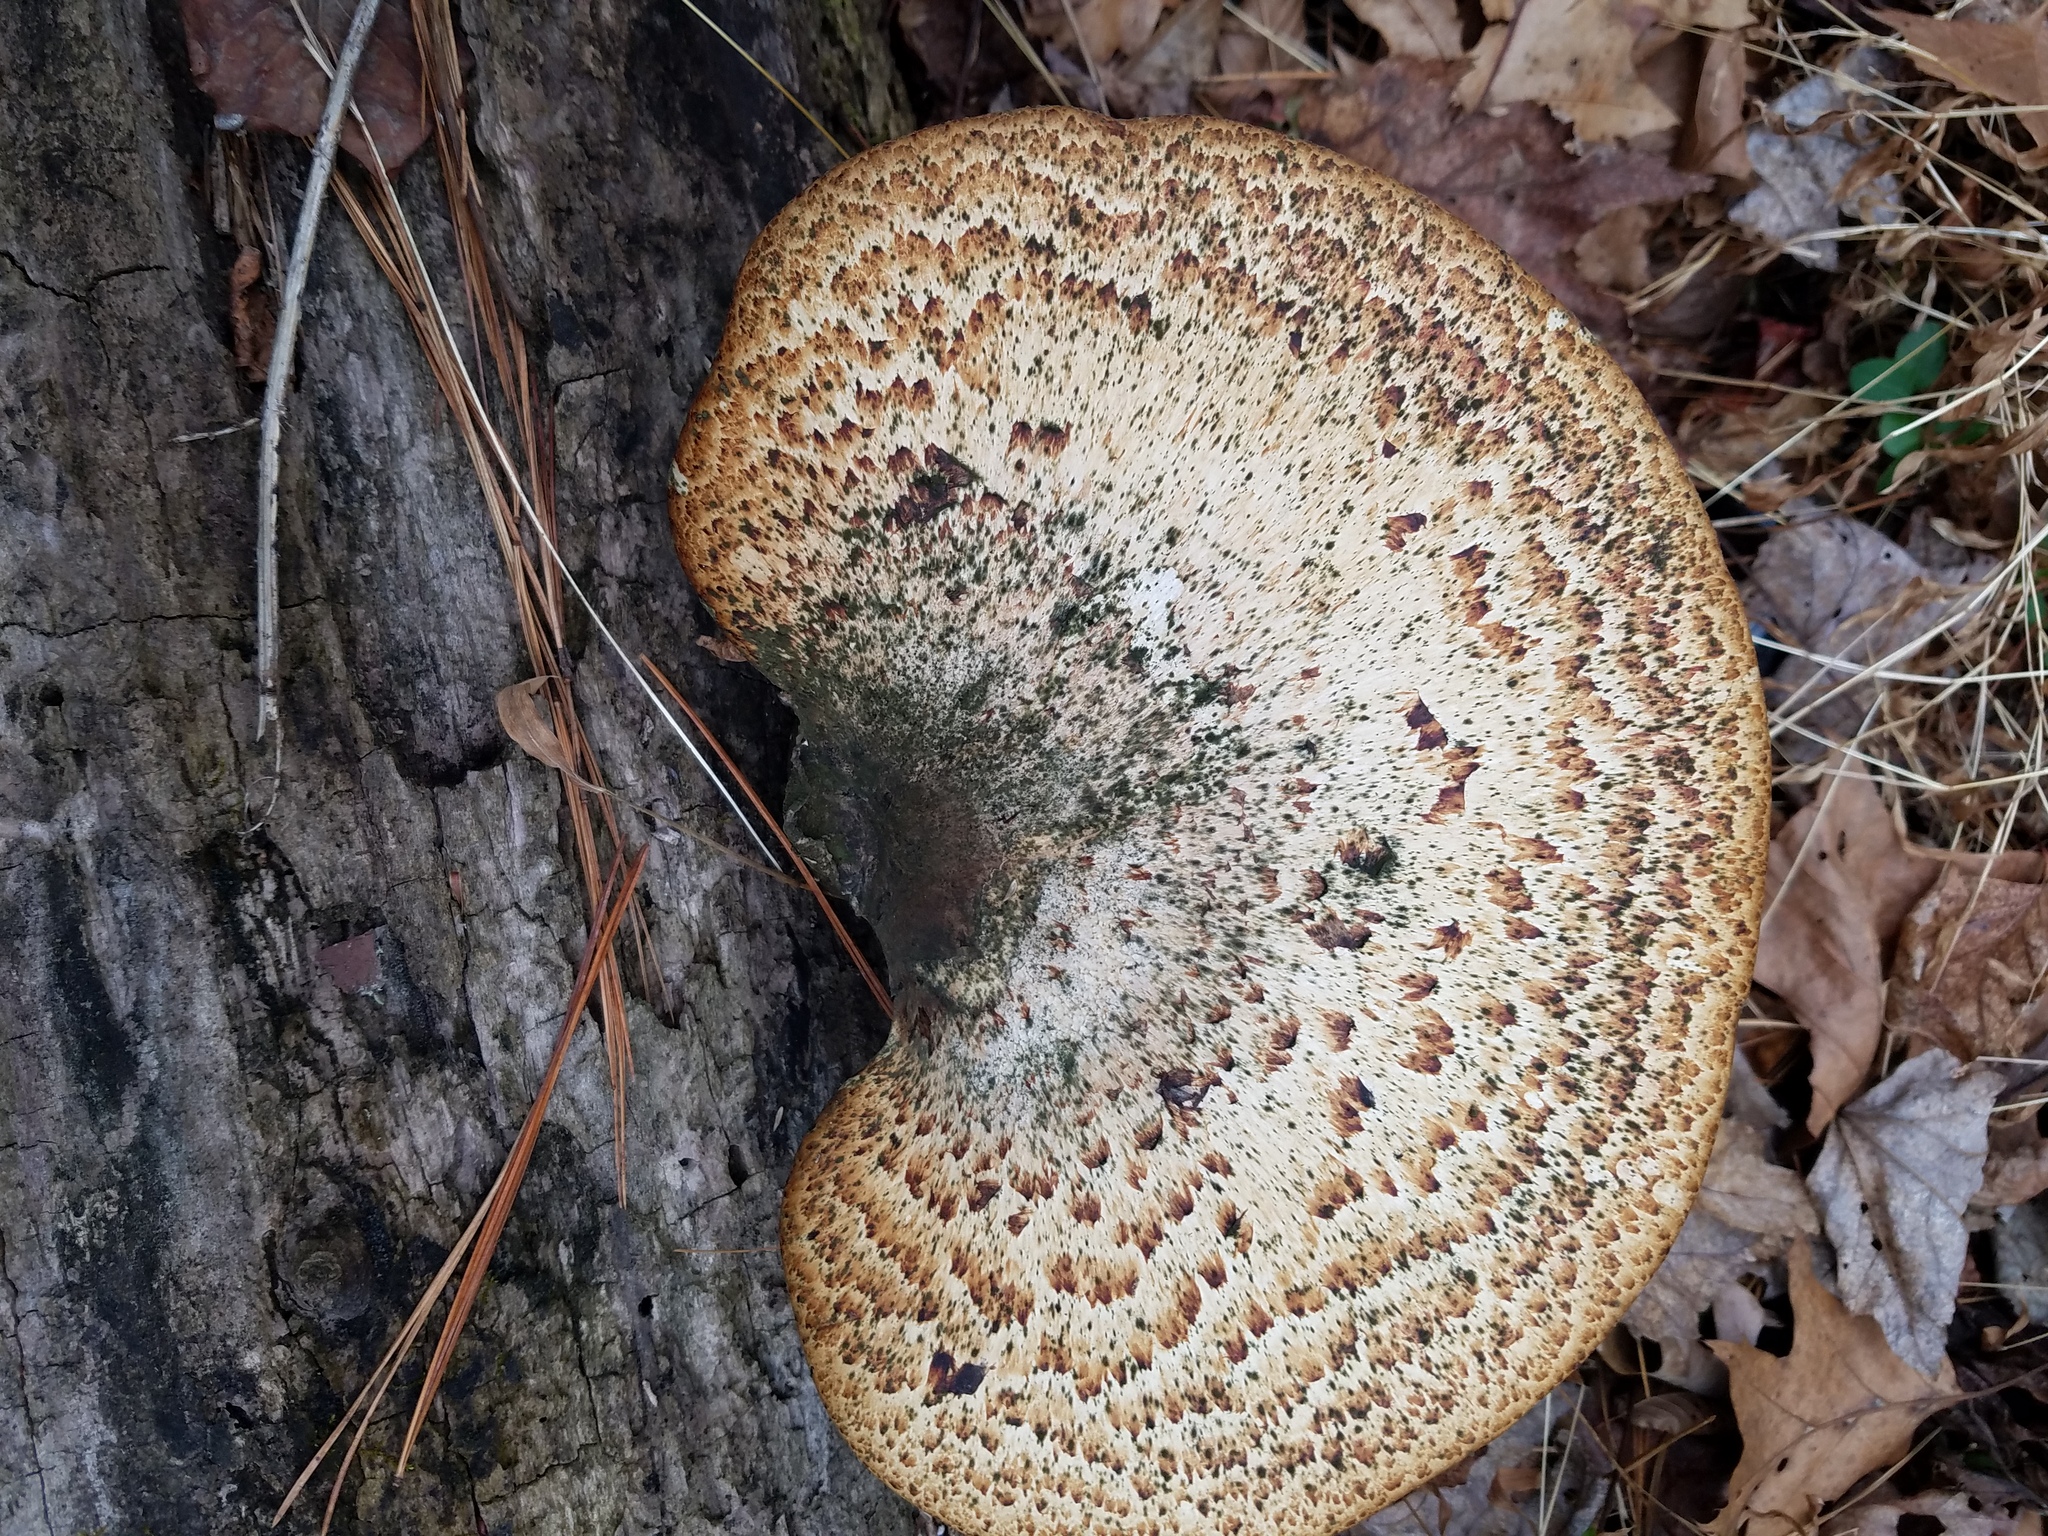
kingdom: Fungi
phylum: Basidiomycota
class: Agaricomycetes
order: Polyporales
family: Polyporaceae
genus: Cerioporus
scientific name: Cerioporus squamosus
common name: Dryad's saddle
